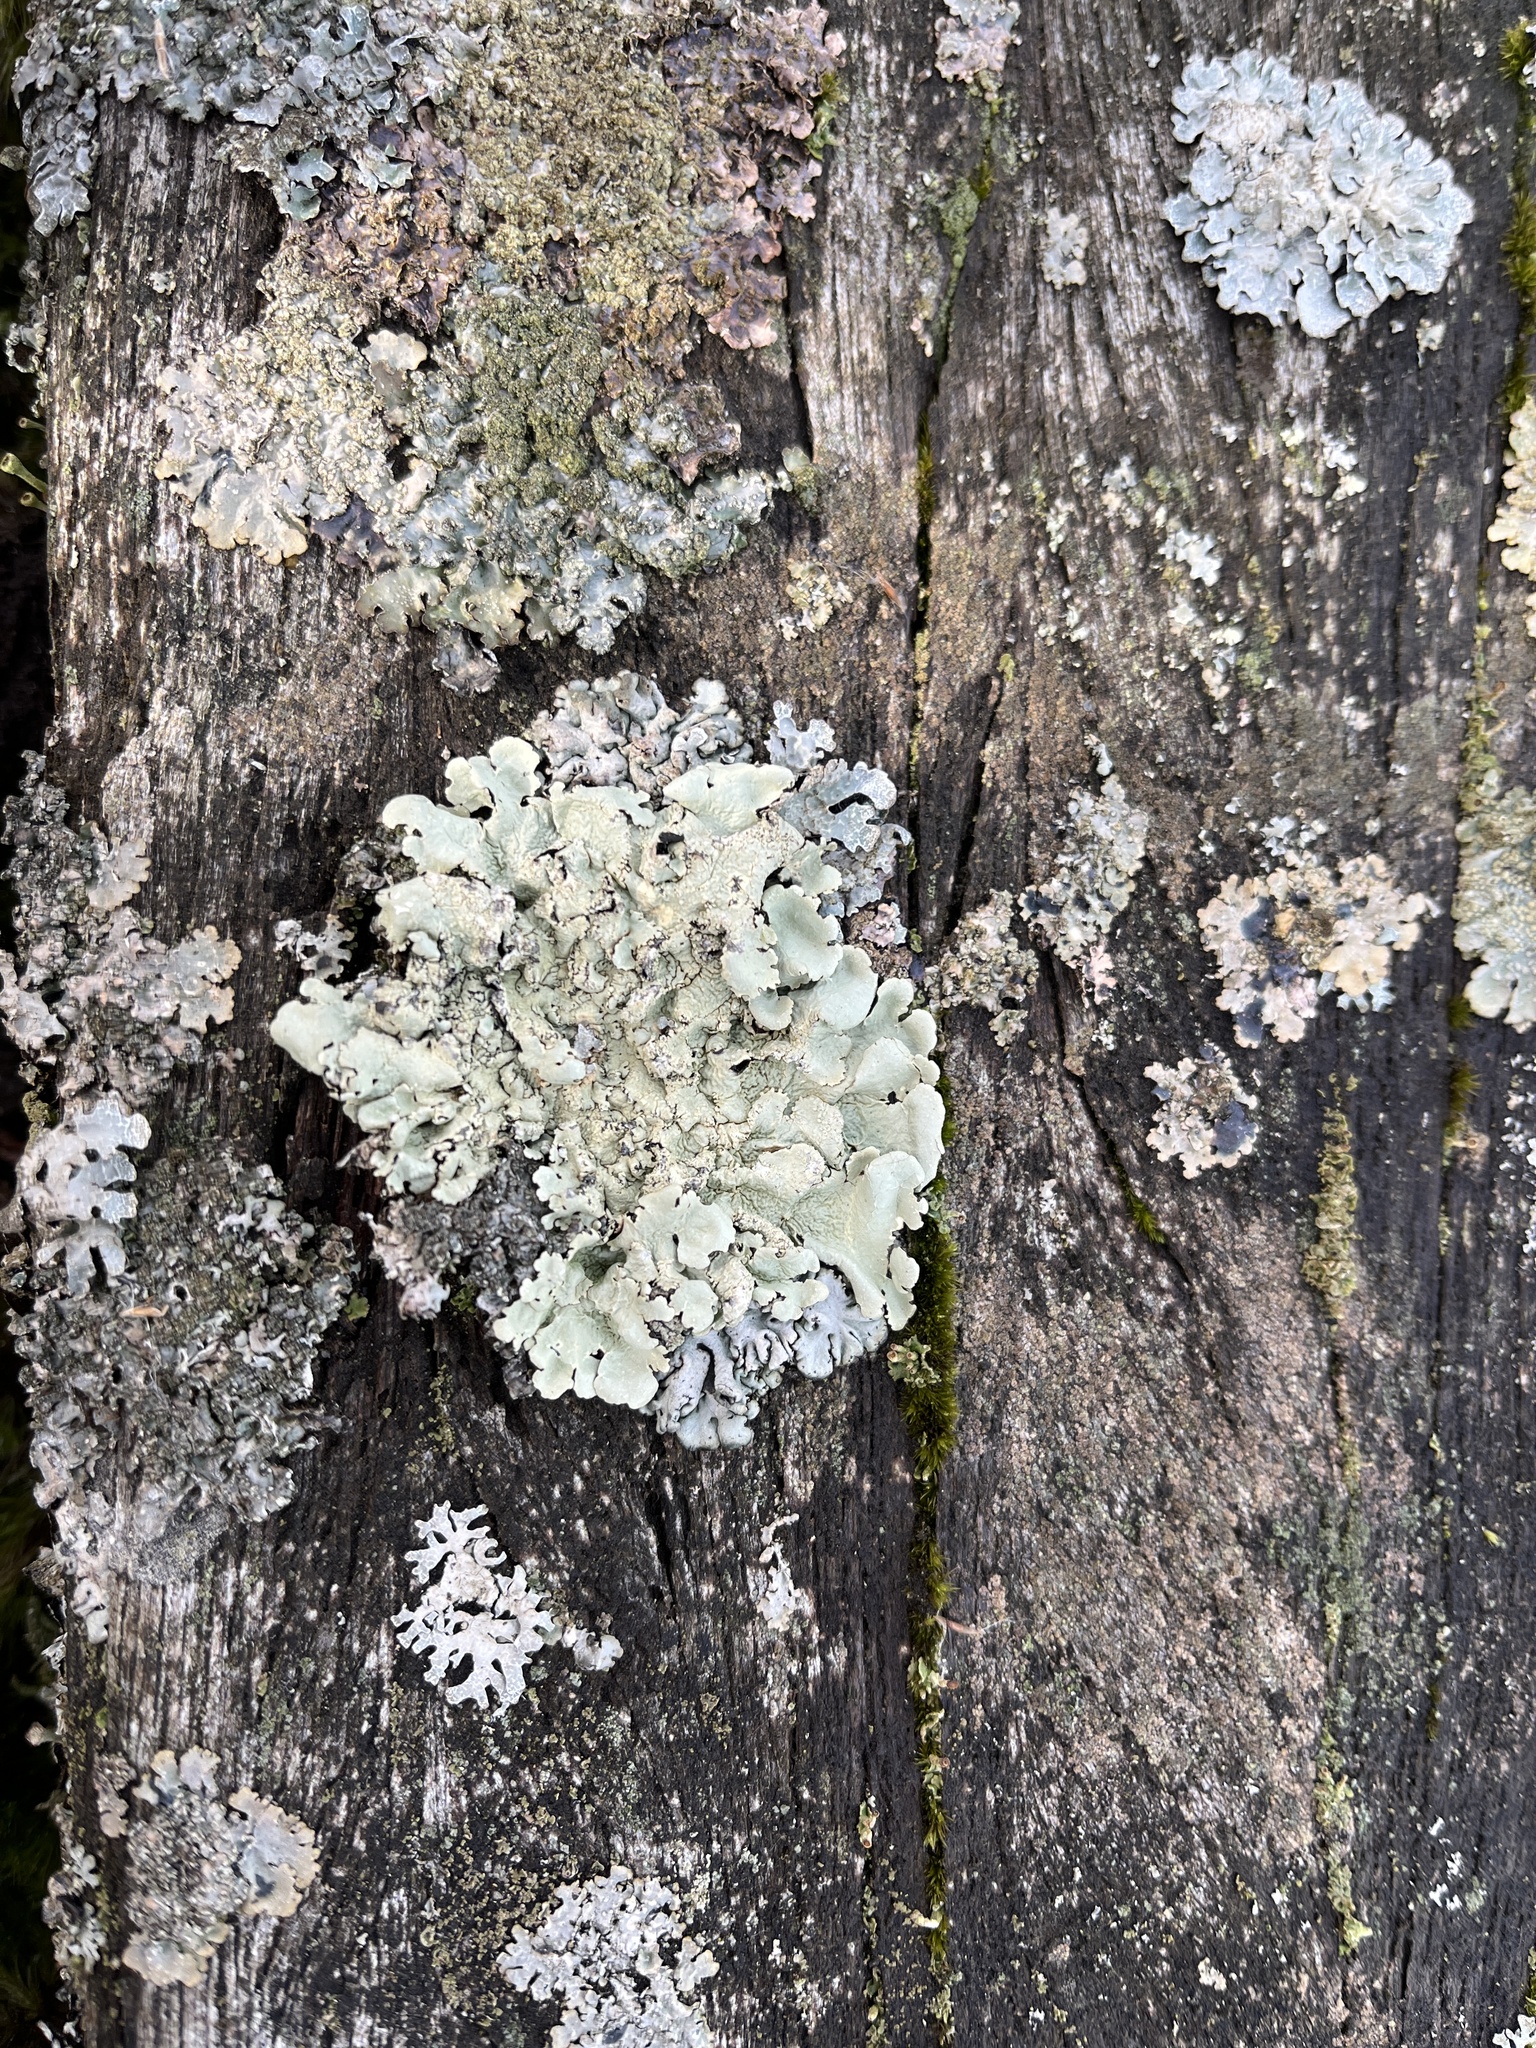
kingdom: Fungi
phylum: Ascomycota
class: Lecanoromycetes
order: Lecanorales
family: Parmeliaceae
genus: Flavoparmelia
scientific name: Flavoparmelia caperata
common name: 40-mile per hour lichen
